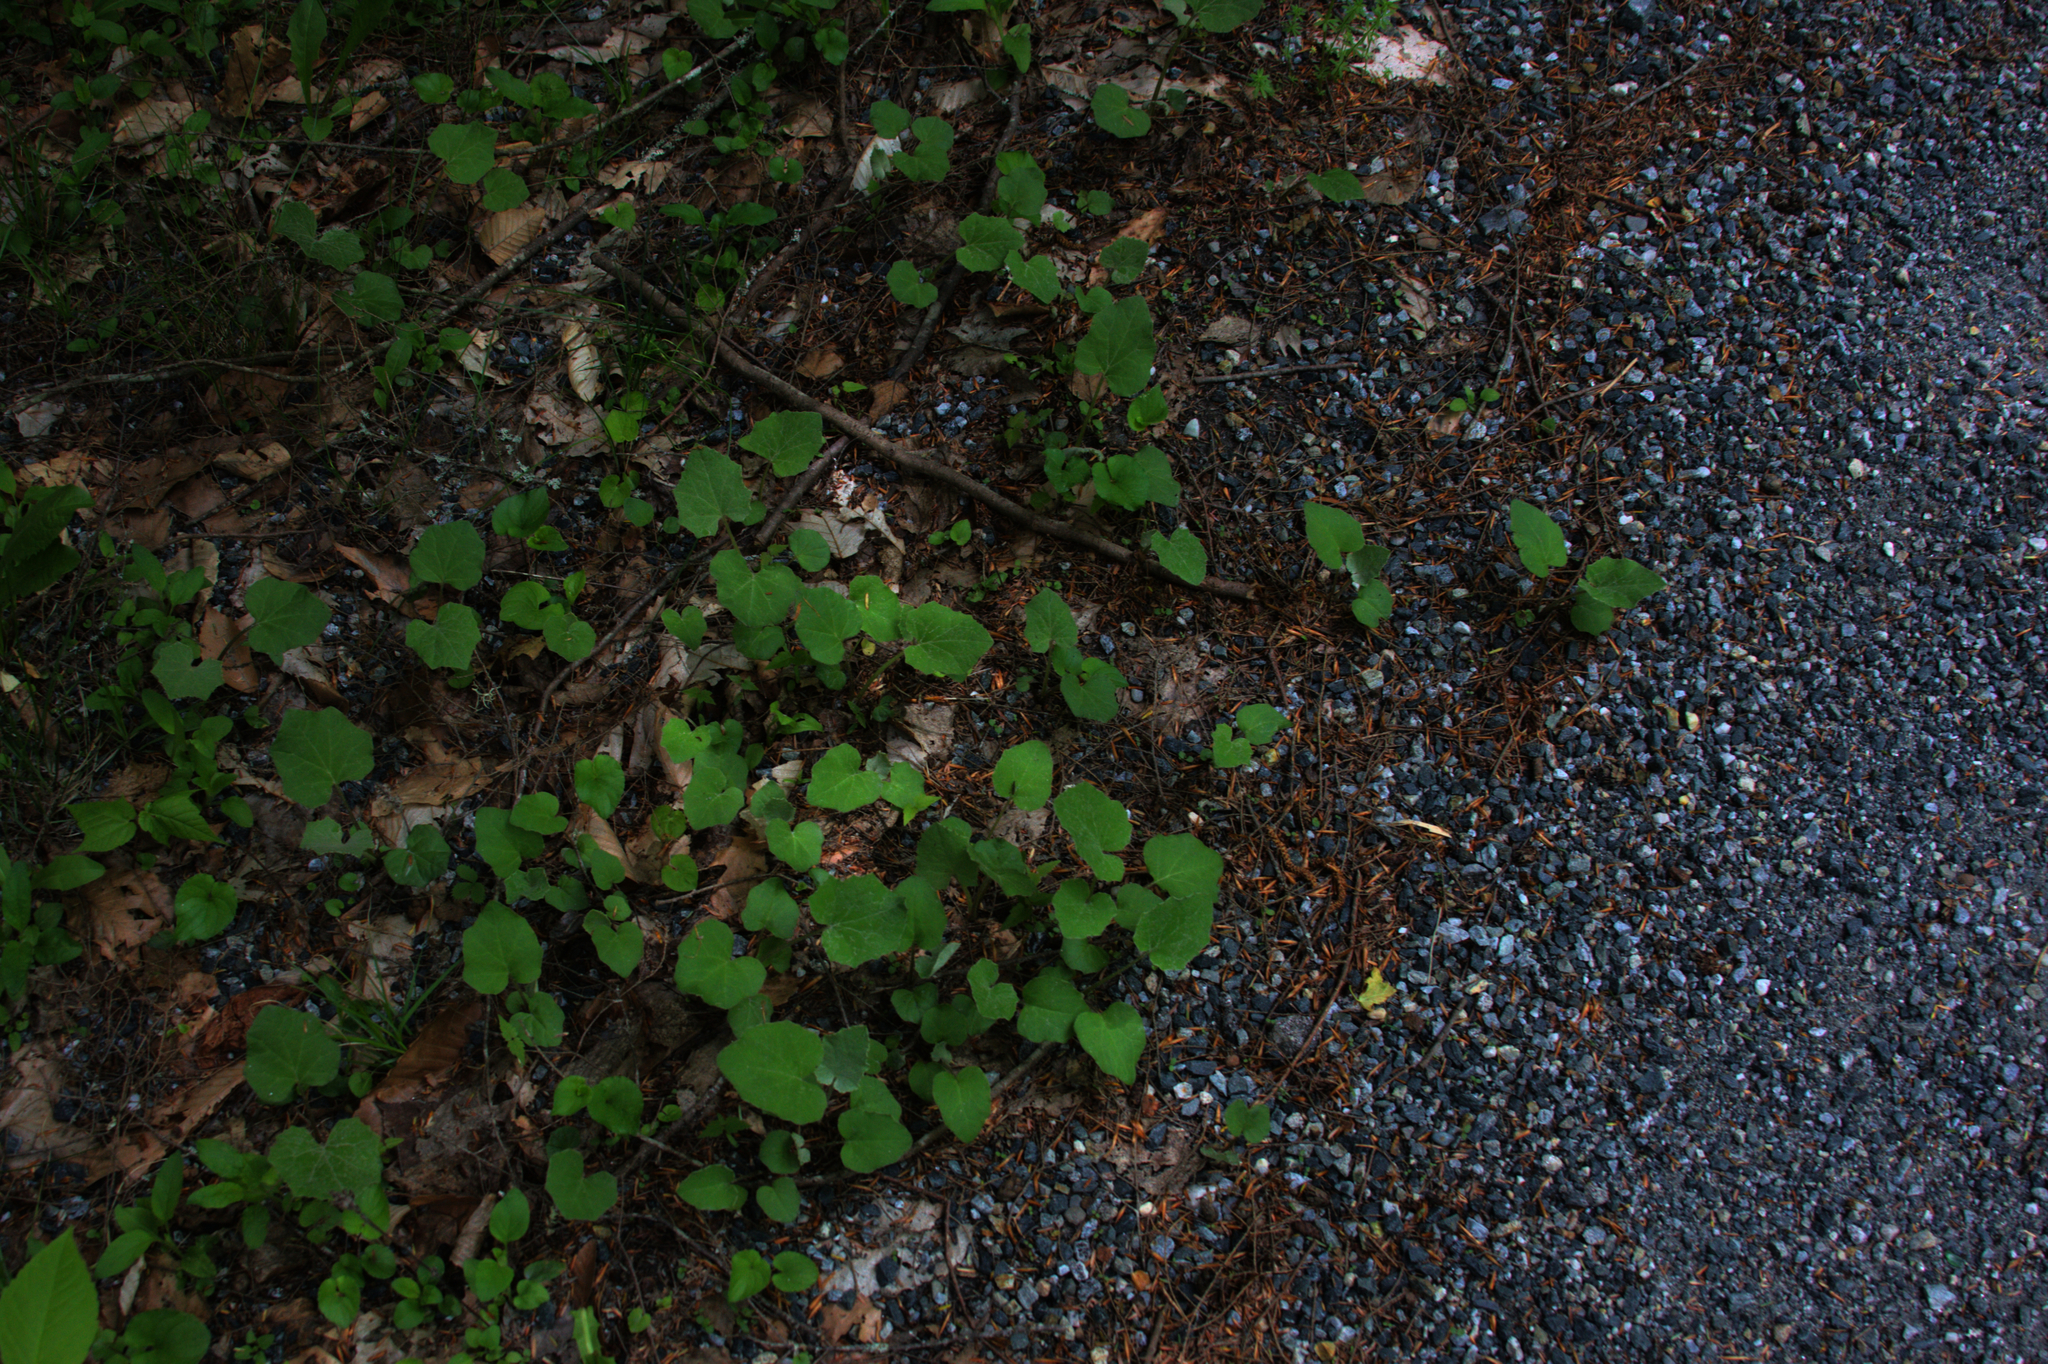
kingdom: Plantae
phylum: Tracheophyta
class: Magnoliopsida
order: Asterales
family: Asteraceae
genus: Tussilago
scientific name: Tussilago farfara
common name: Coltsfoot
